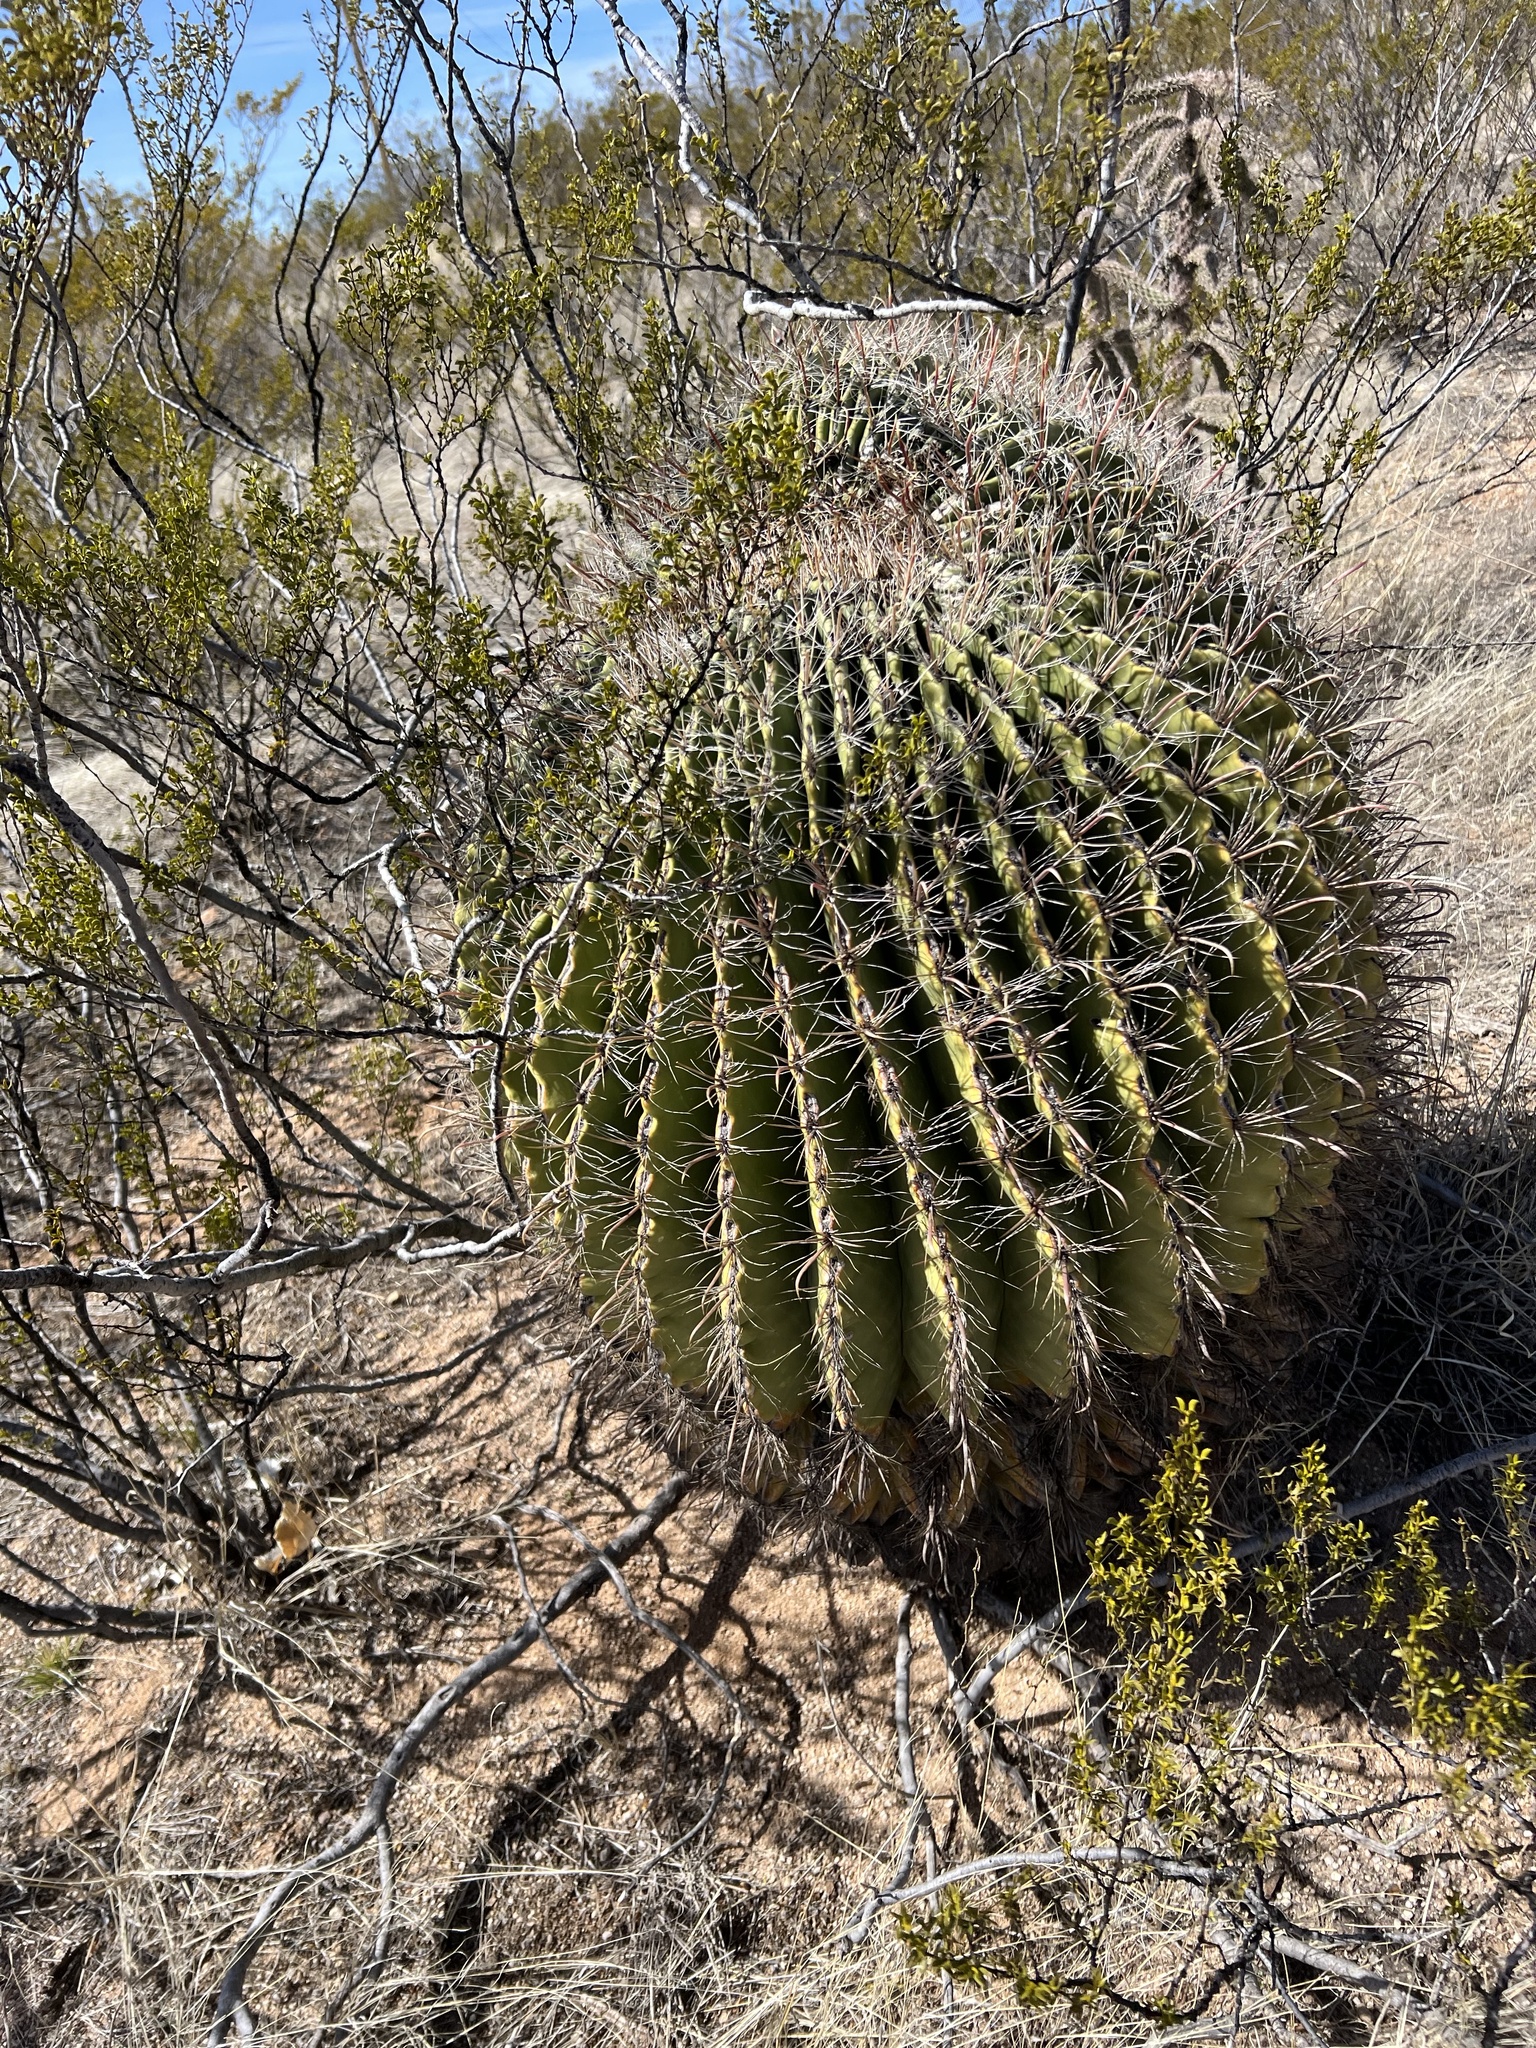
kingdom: Plantae
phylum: Tracheophyta
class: Magnoliopsida
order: Caryophyllales
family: Cactaceae
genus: Ferocactus
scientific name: Ferocactus wislizeni
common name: Candy barrel cactus
